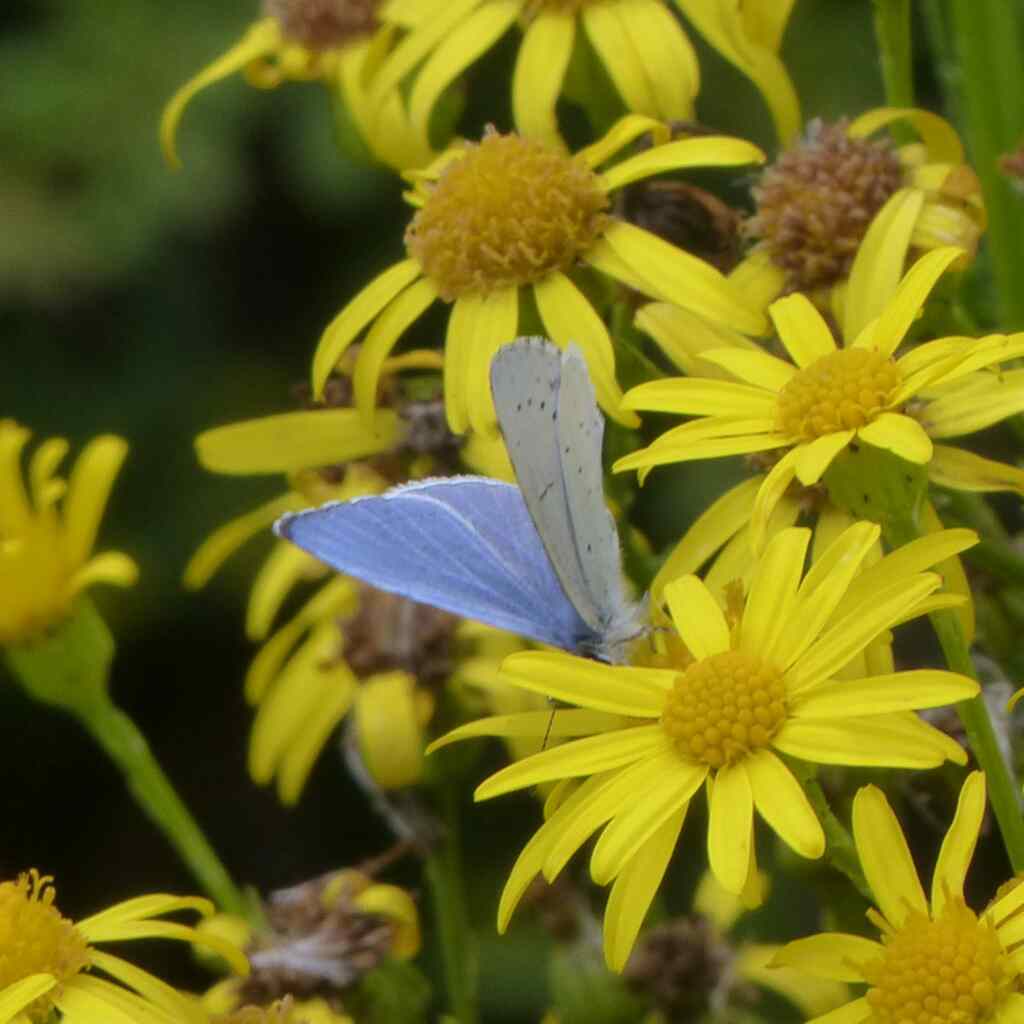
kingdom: Animalia
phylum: Arthropoda
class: Insecta
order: Lepidoptera
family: Lycaenidae
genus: Celastrina
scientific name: Celastrina argiolus
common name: Holly blue
